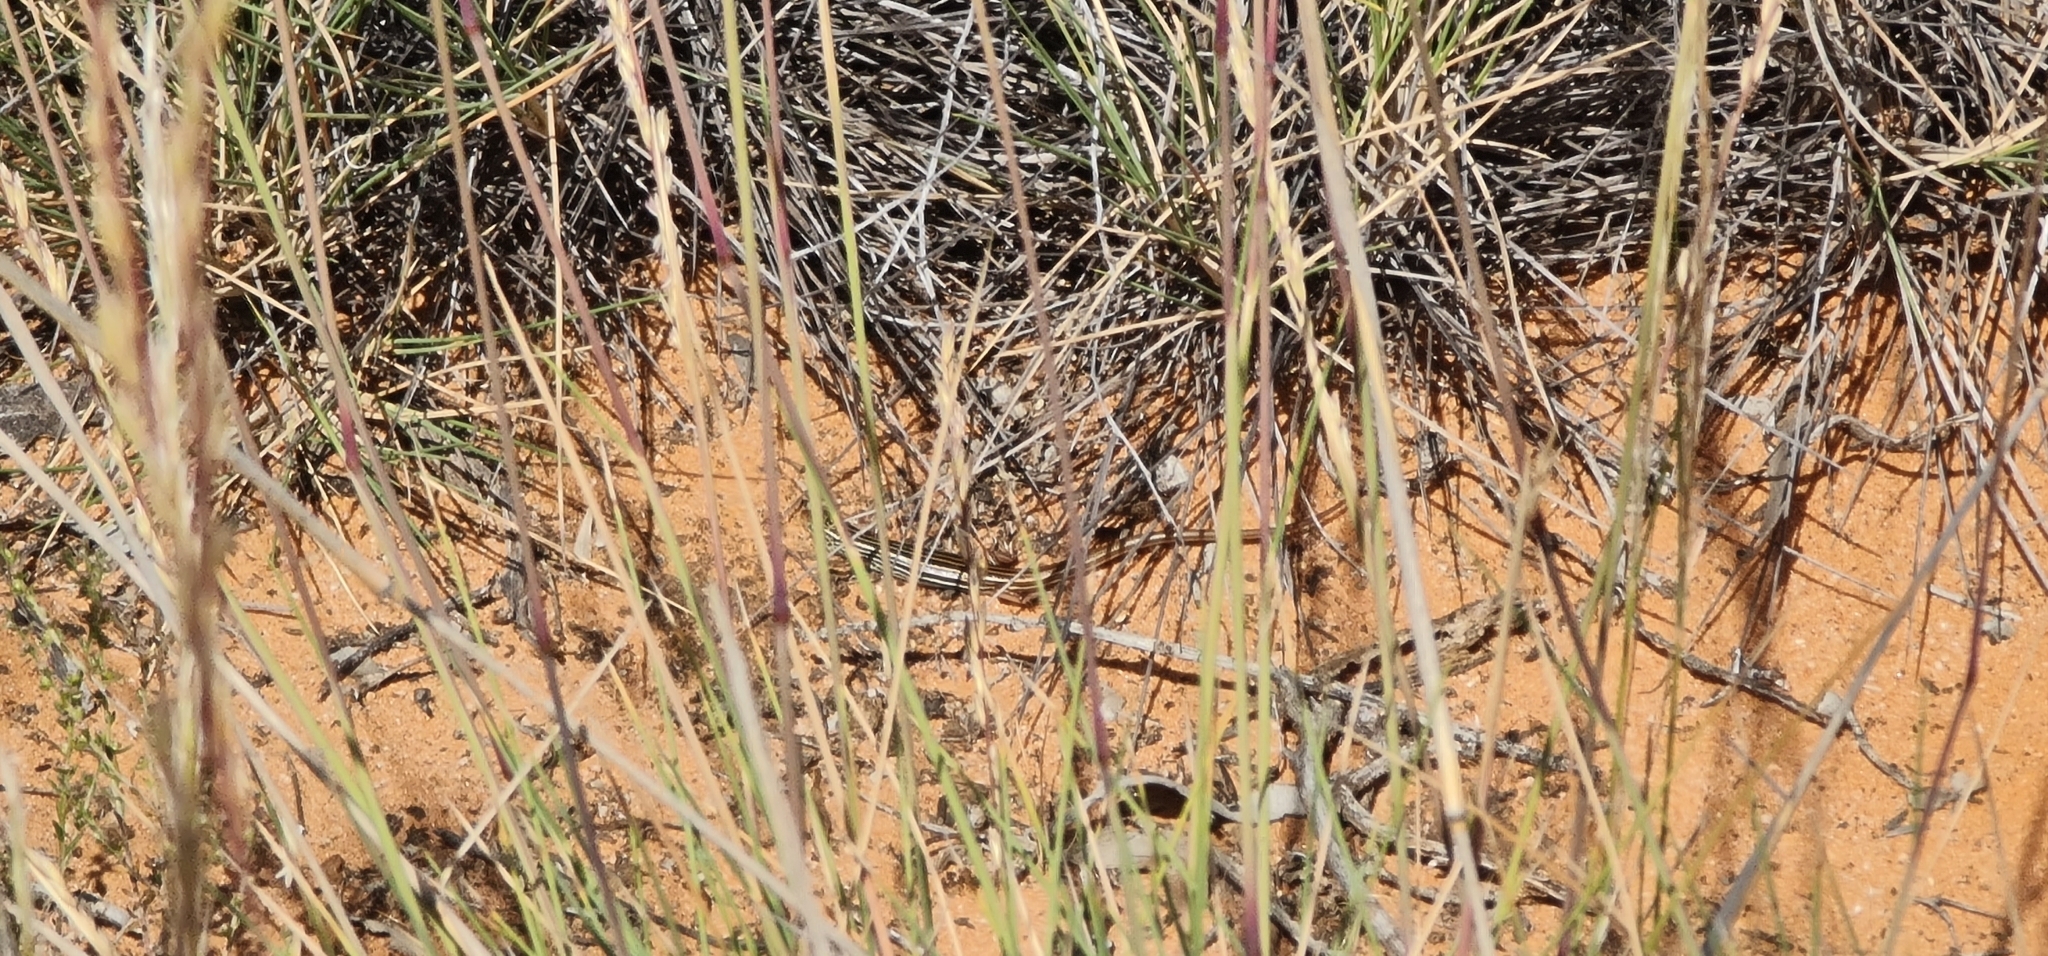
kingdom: Animalia
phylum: Chordata
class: Squamata
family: Scincidae
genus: Ctenotus
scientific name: Ctenotus atlas
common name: Southern mallee ctenotus
